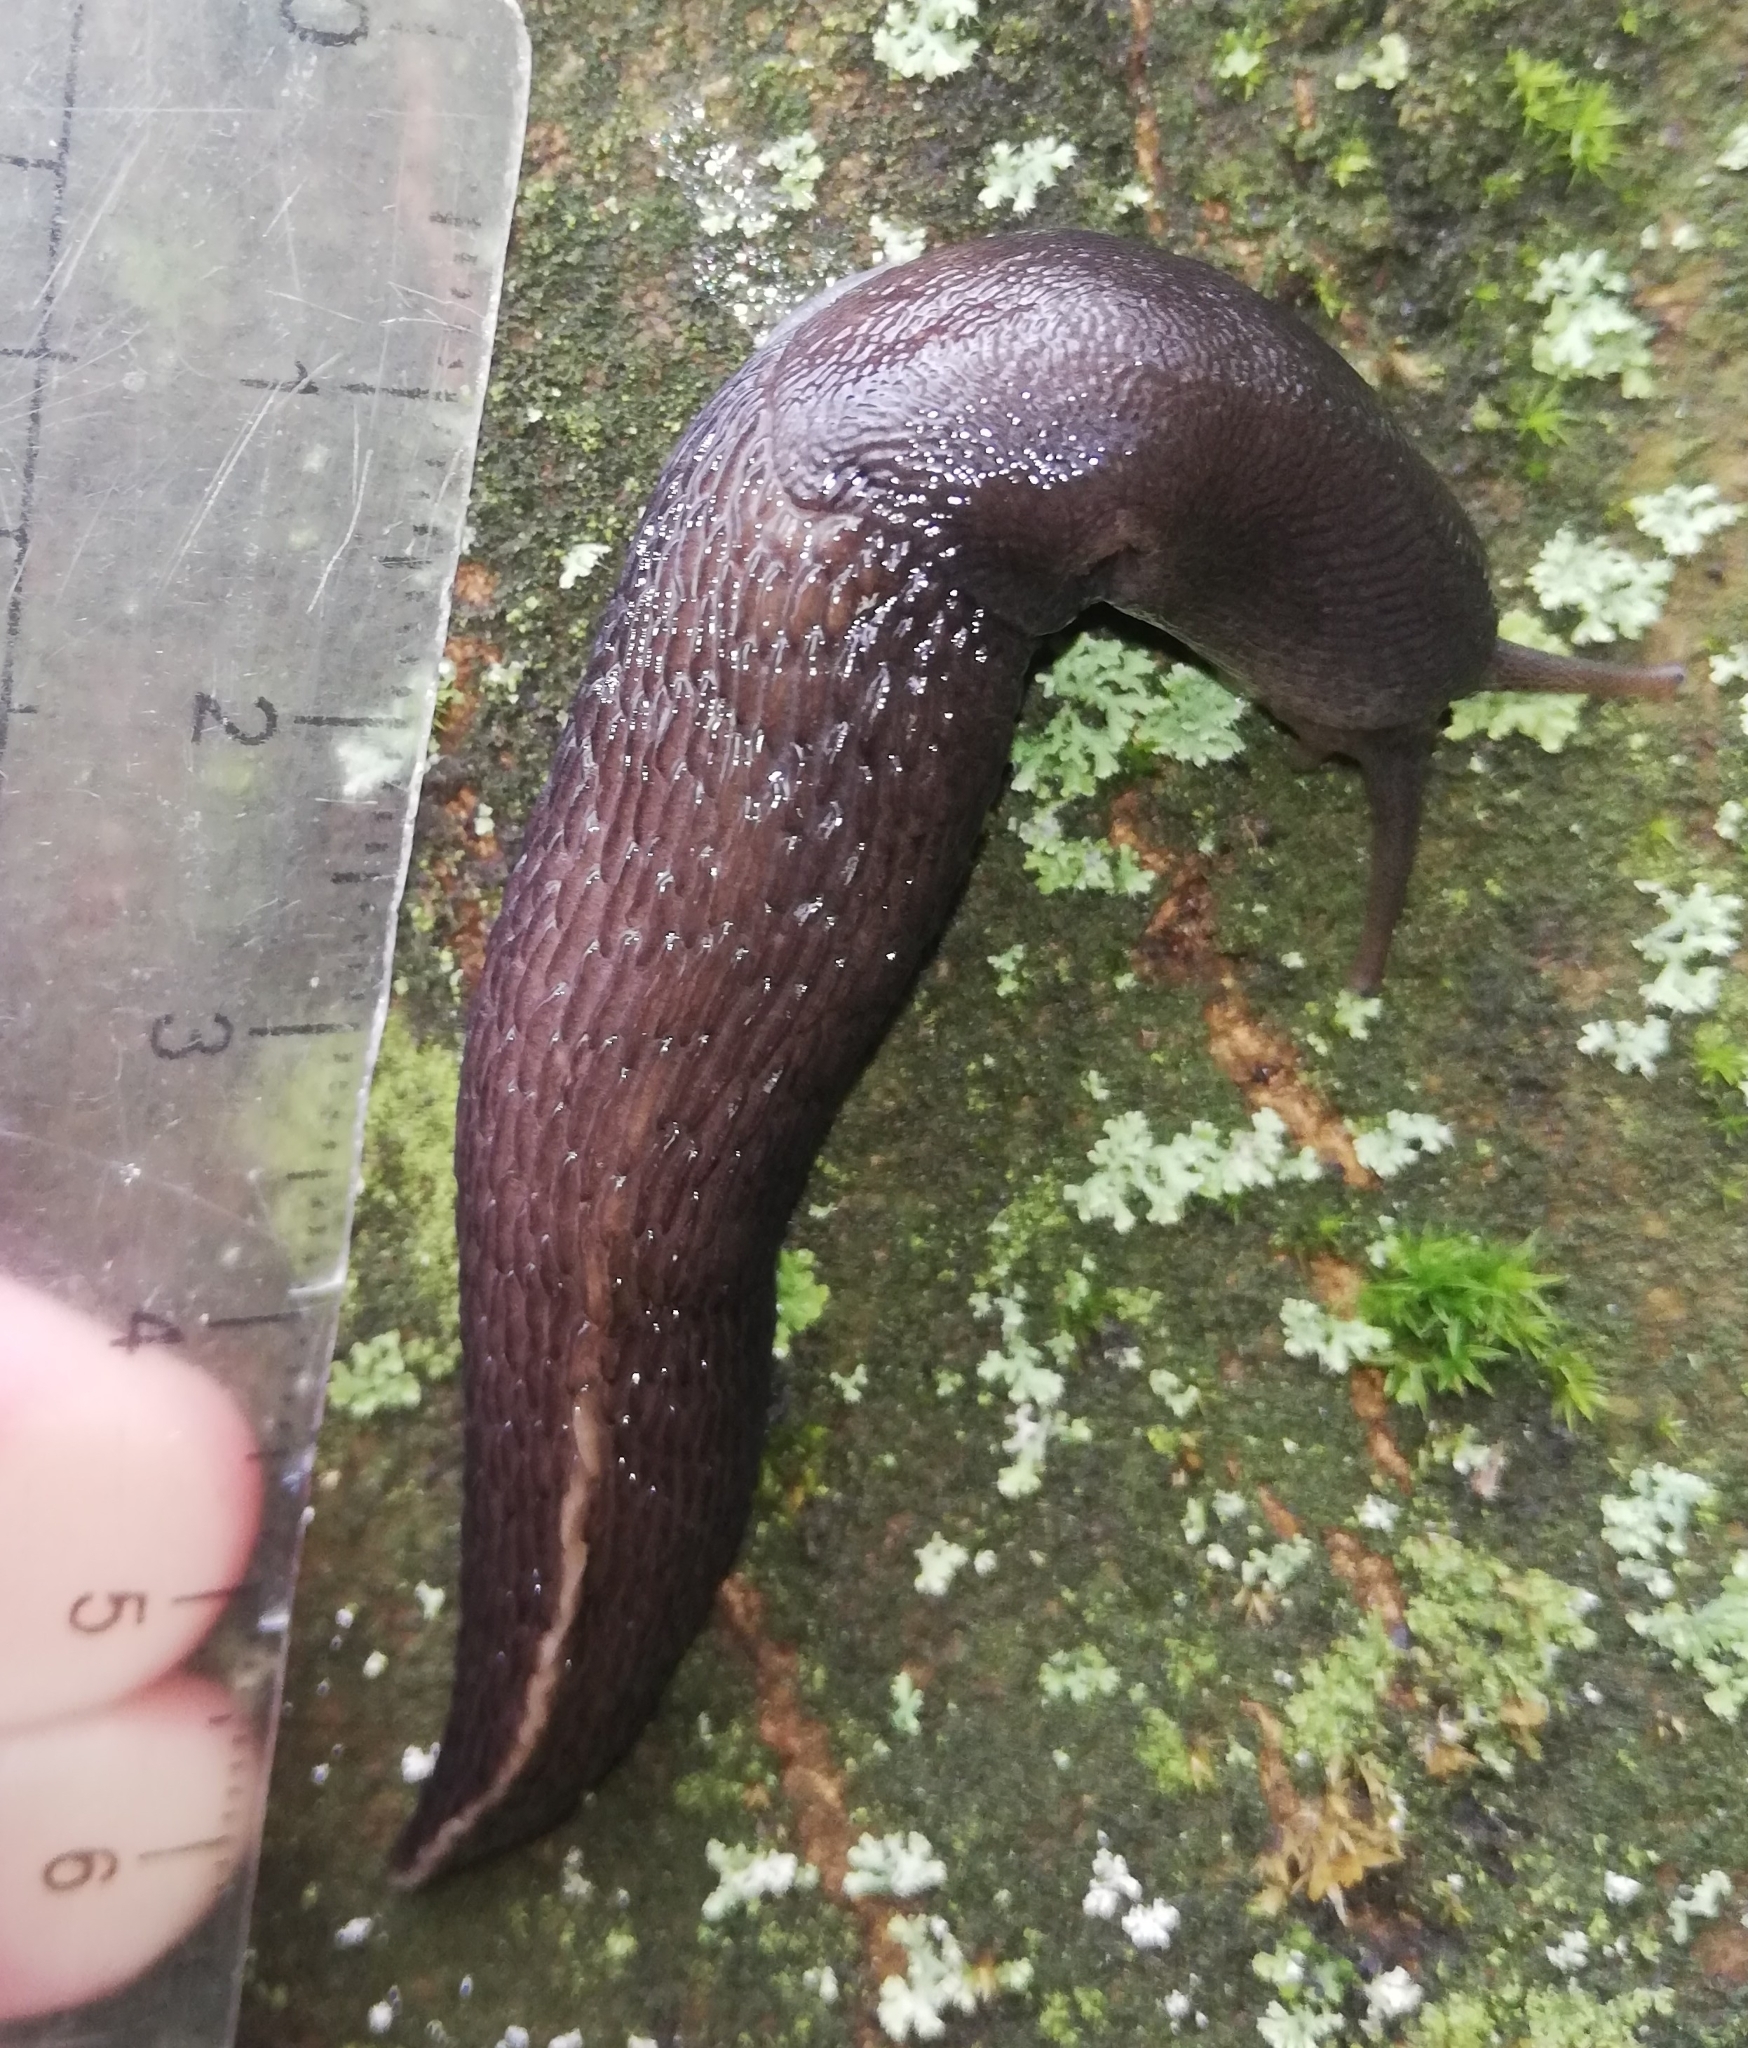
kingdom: Animalia
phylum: Mollusca
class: Gastropoda
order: Stylommatophora
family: Limacidae
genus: Limax
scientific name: Limax cinereoniger
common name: Ash-black slug
